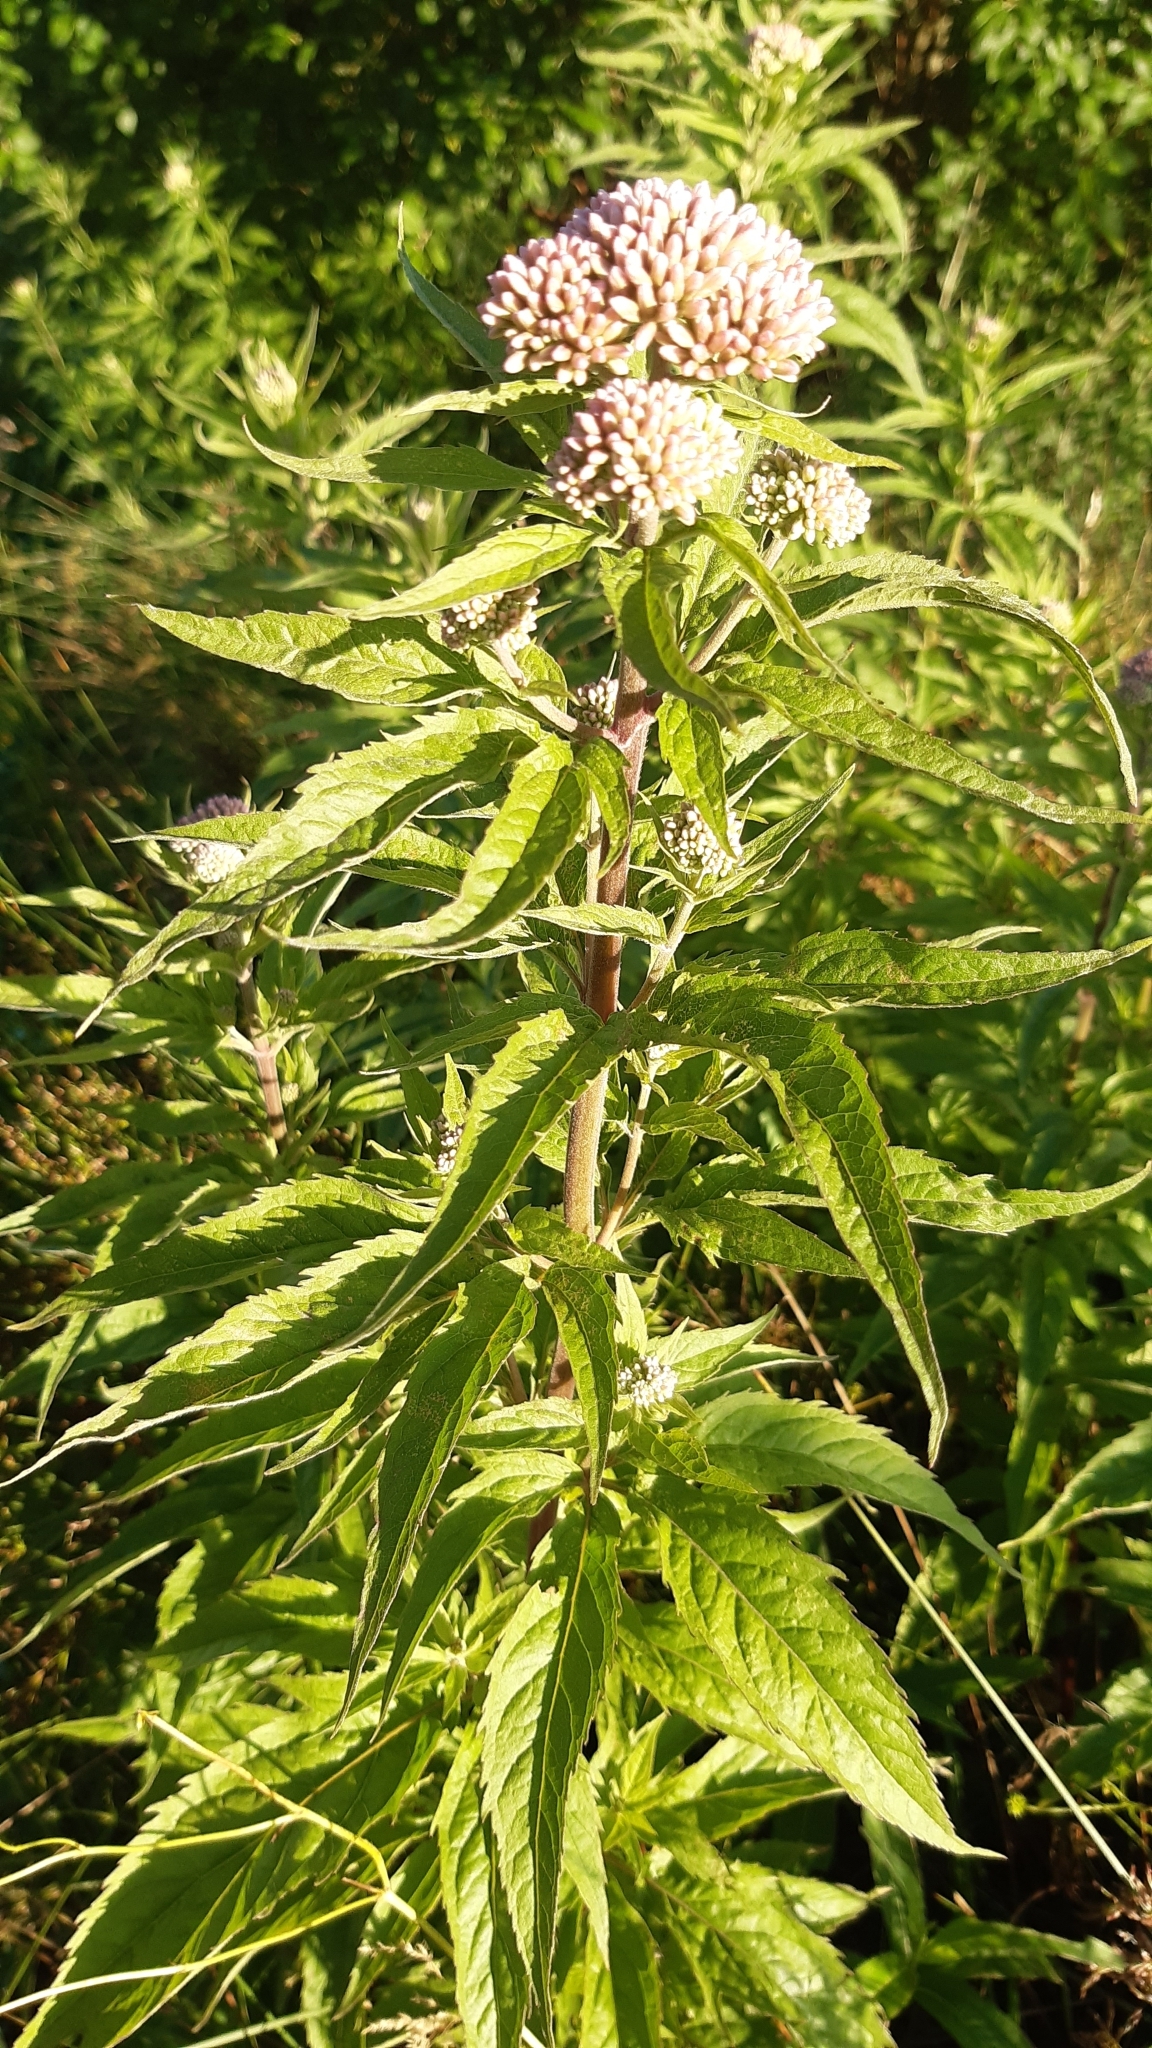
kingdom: Plantae
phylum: Tracheophyta
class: Magnoliopsida
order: Asterales
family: Asteraceae
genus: Eupatorium
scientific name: Eupatorium cannabinum
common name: Hemp-agrimony
